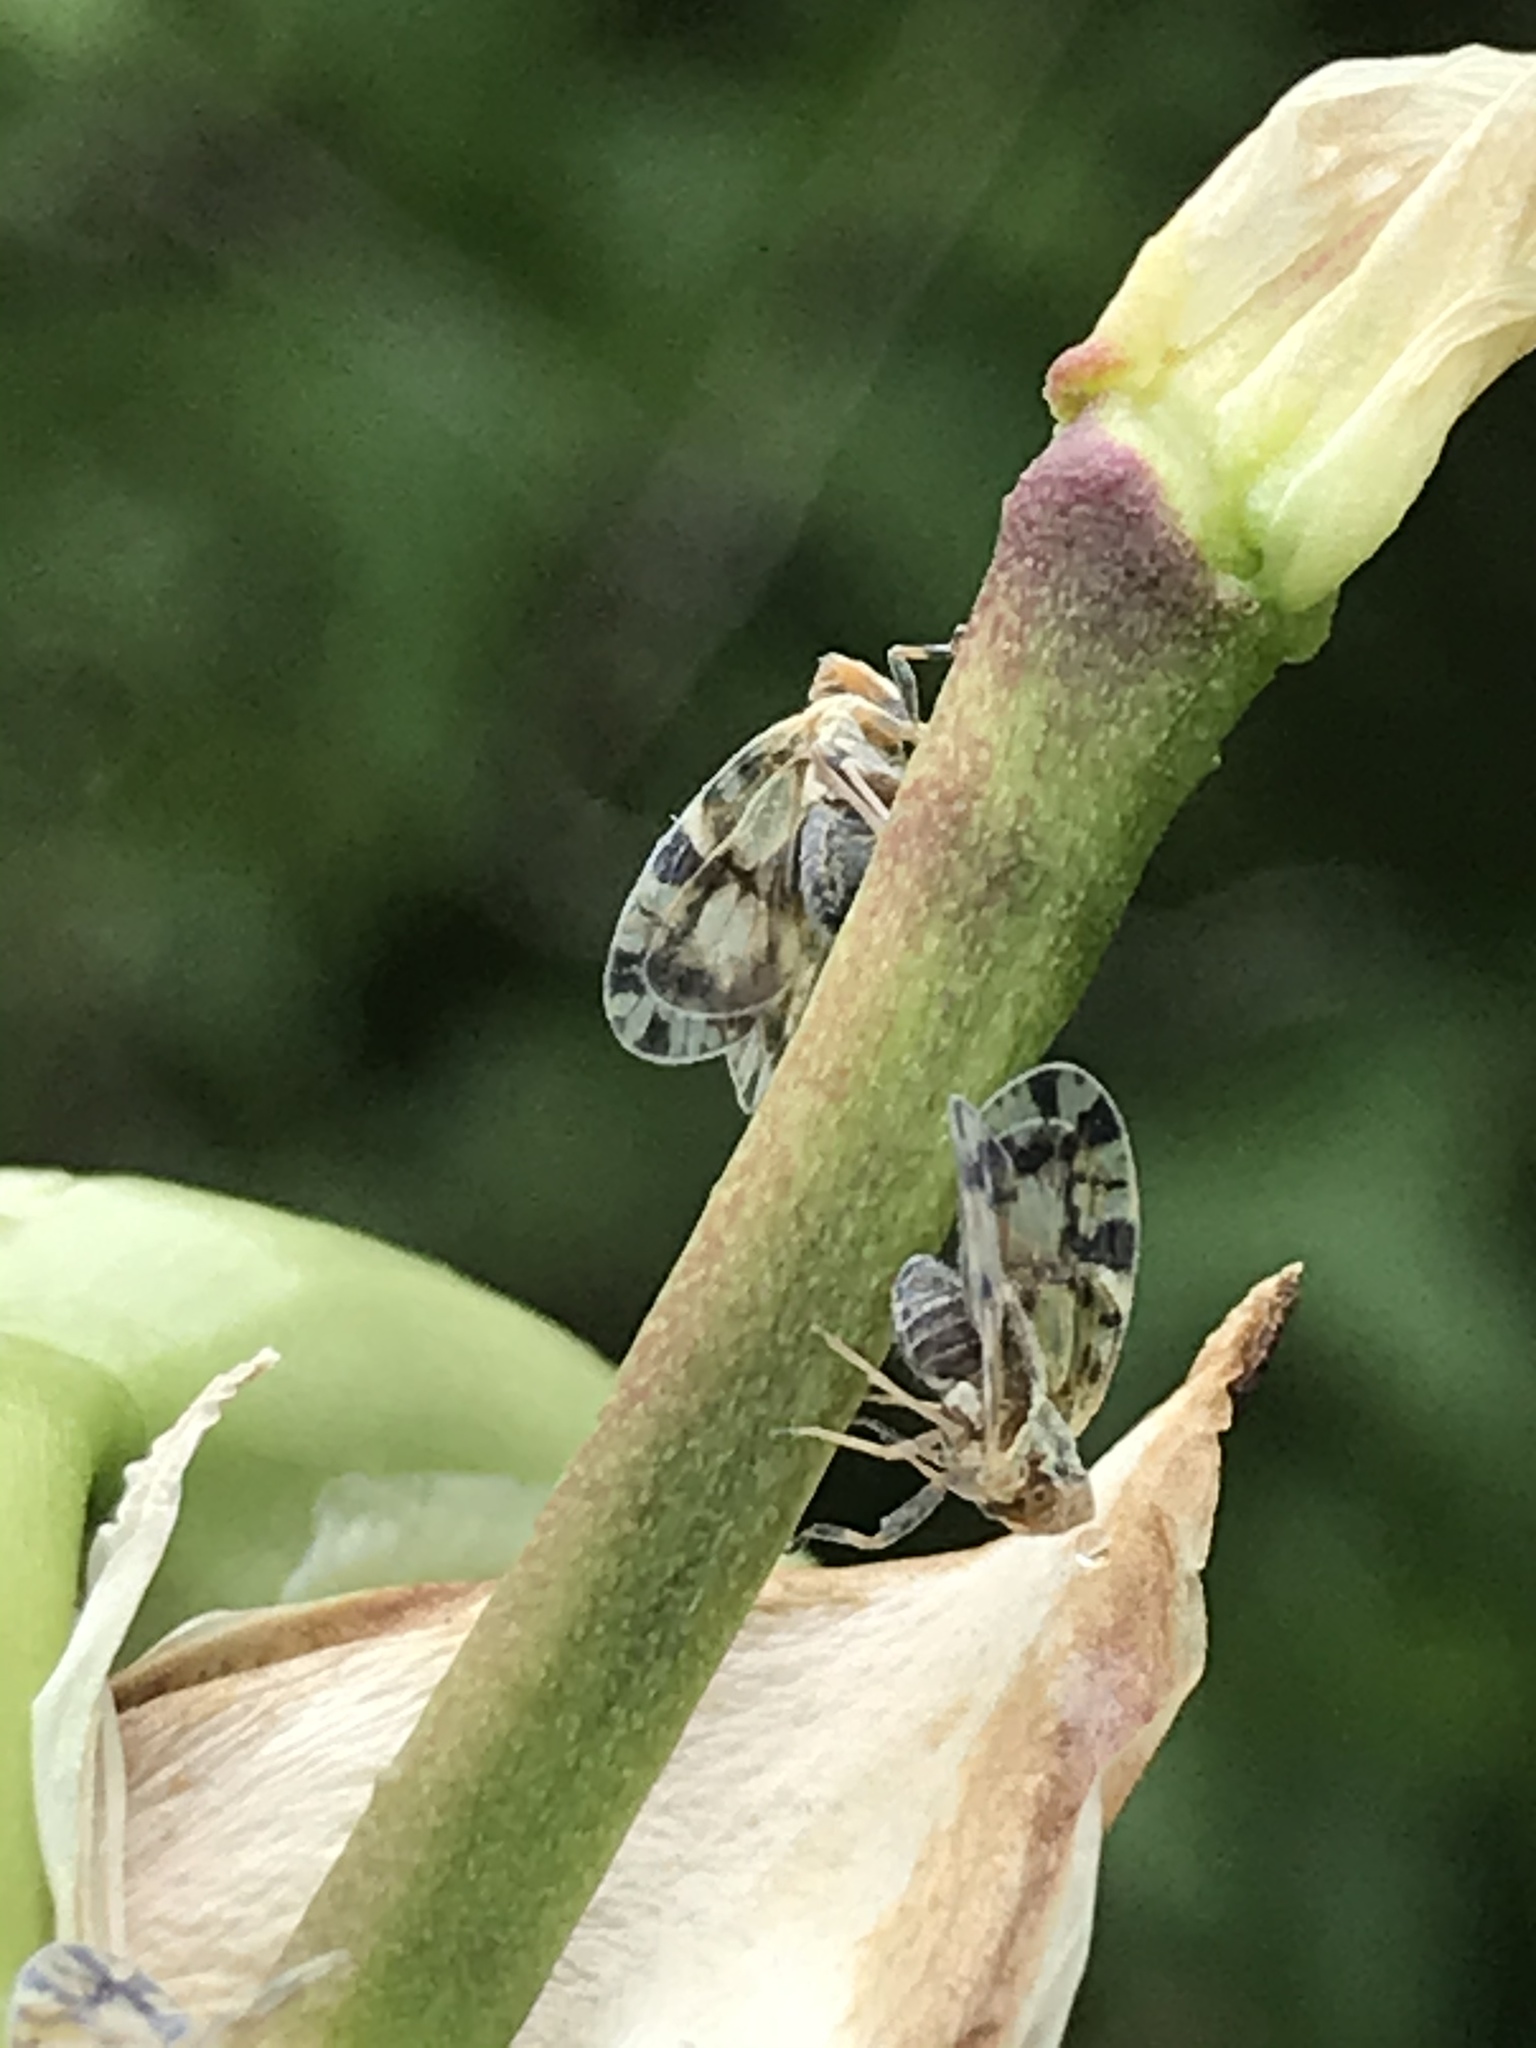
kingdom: Animalia
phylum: Arthropoda
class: Insecta
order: Hemiptera
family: Cixiidae
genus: Bothriocera
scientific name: Bothriocera knulli
